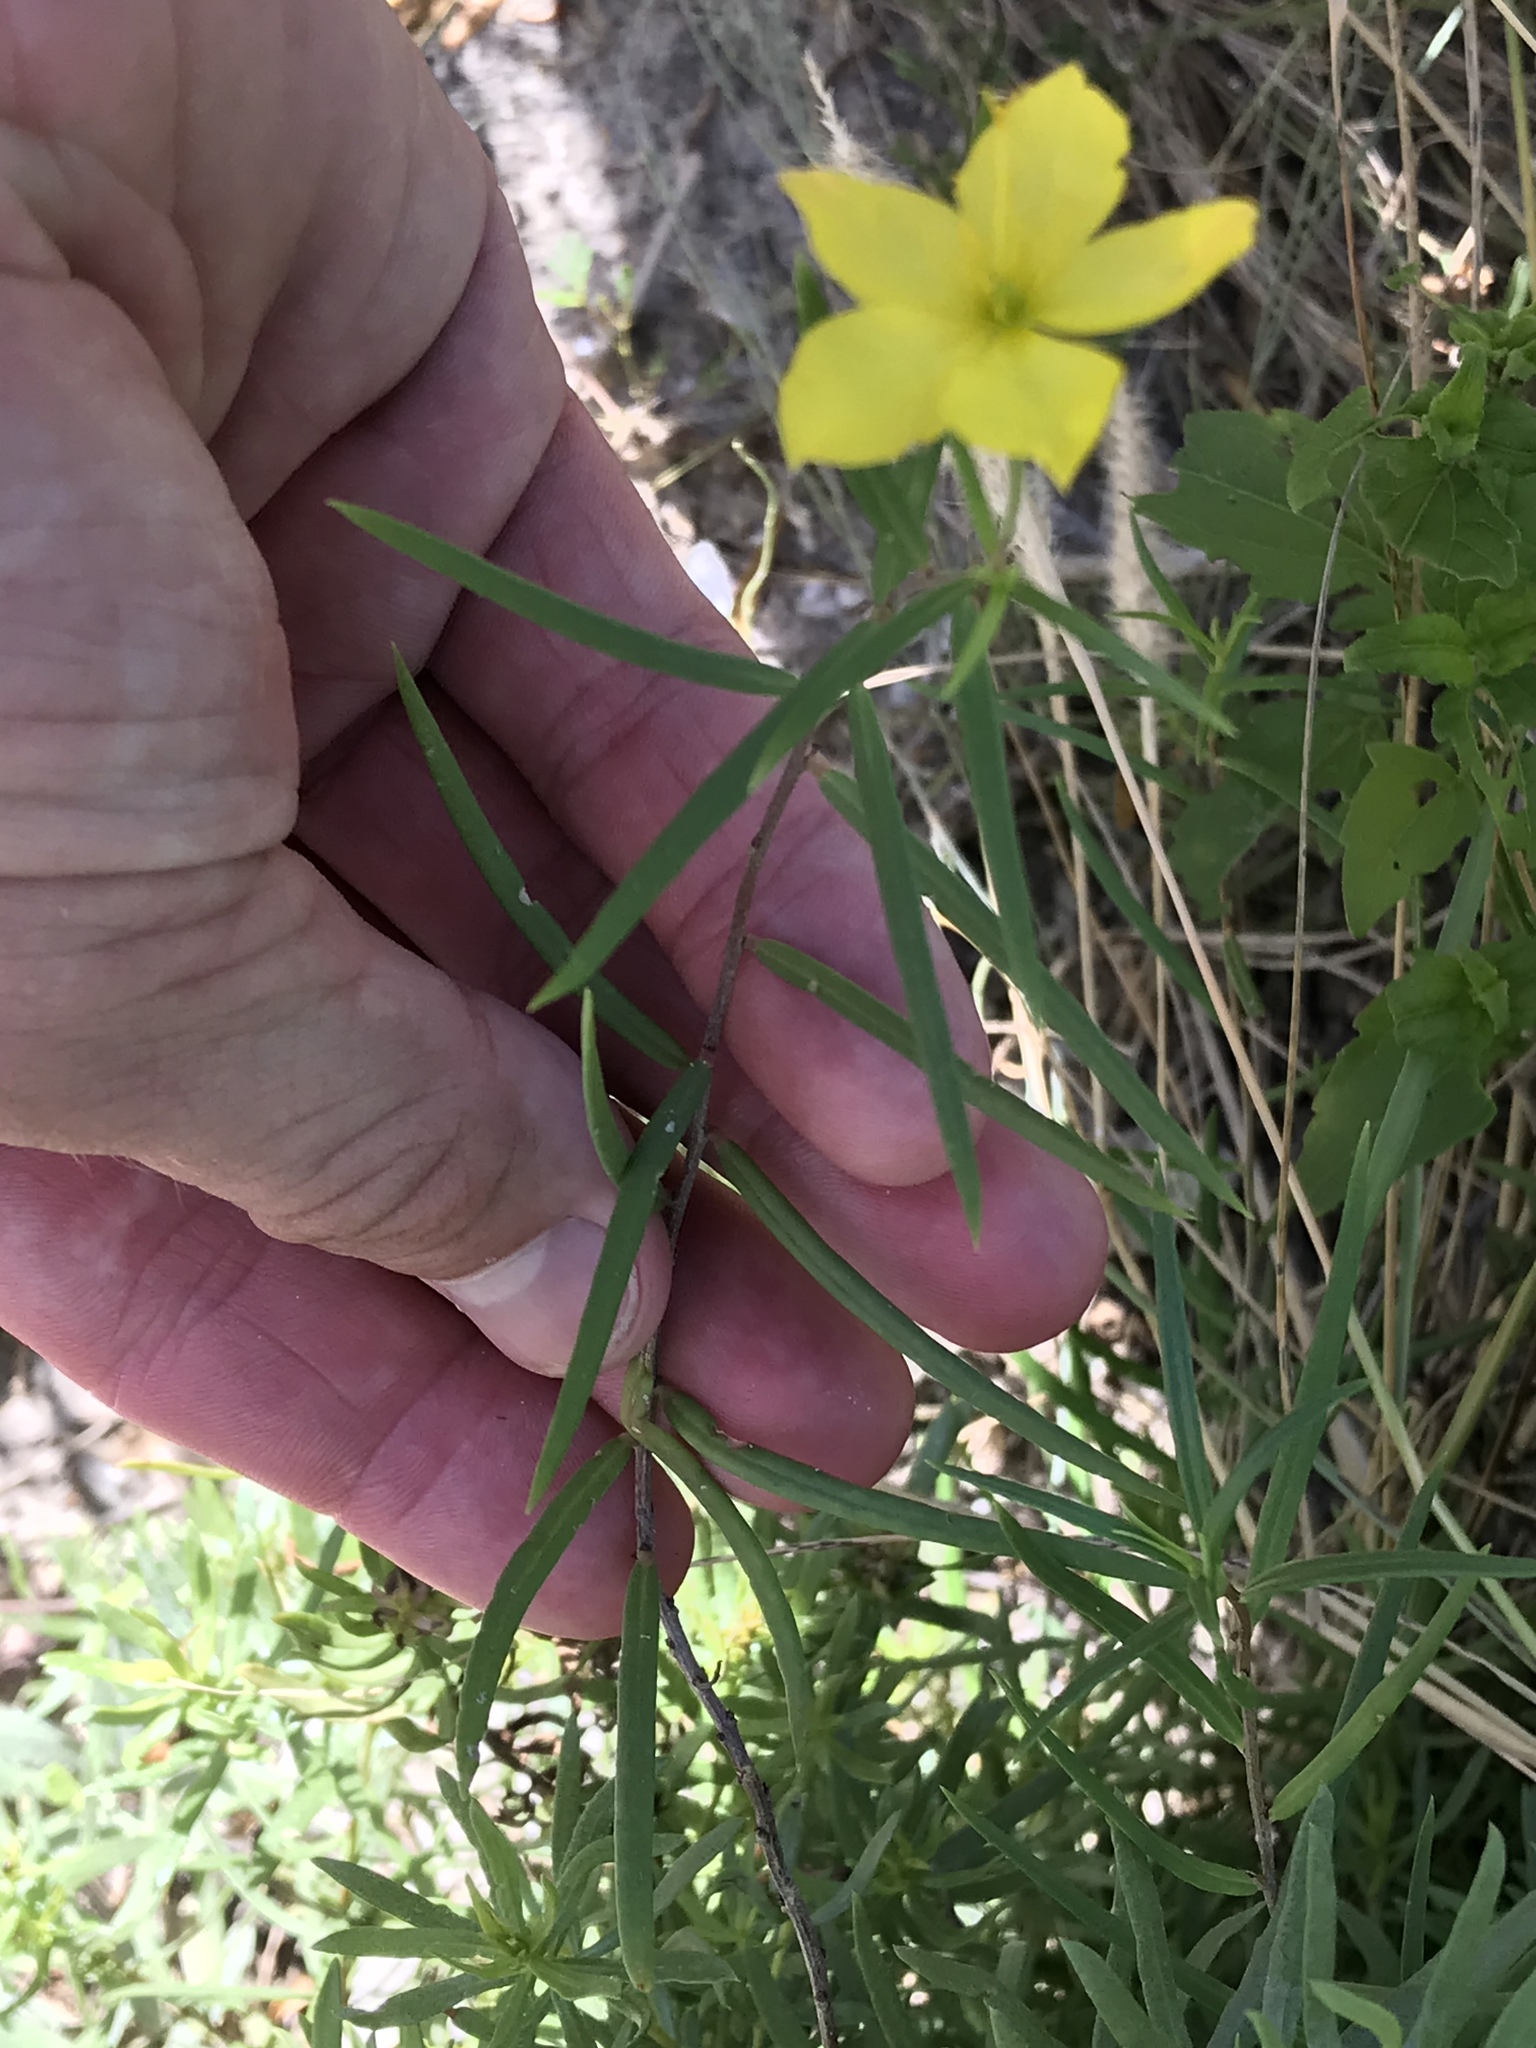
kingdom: Plantae
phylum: Tracheophyta
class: Magnoliopsida
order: Lamiales
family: Oleaceae
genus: Menodora
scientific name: Menodora heterophylla
